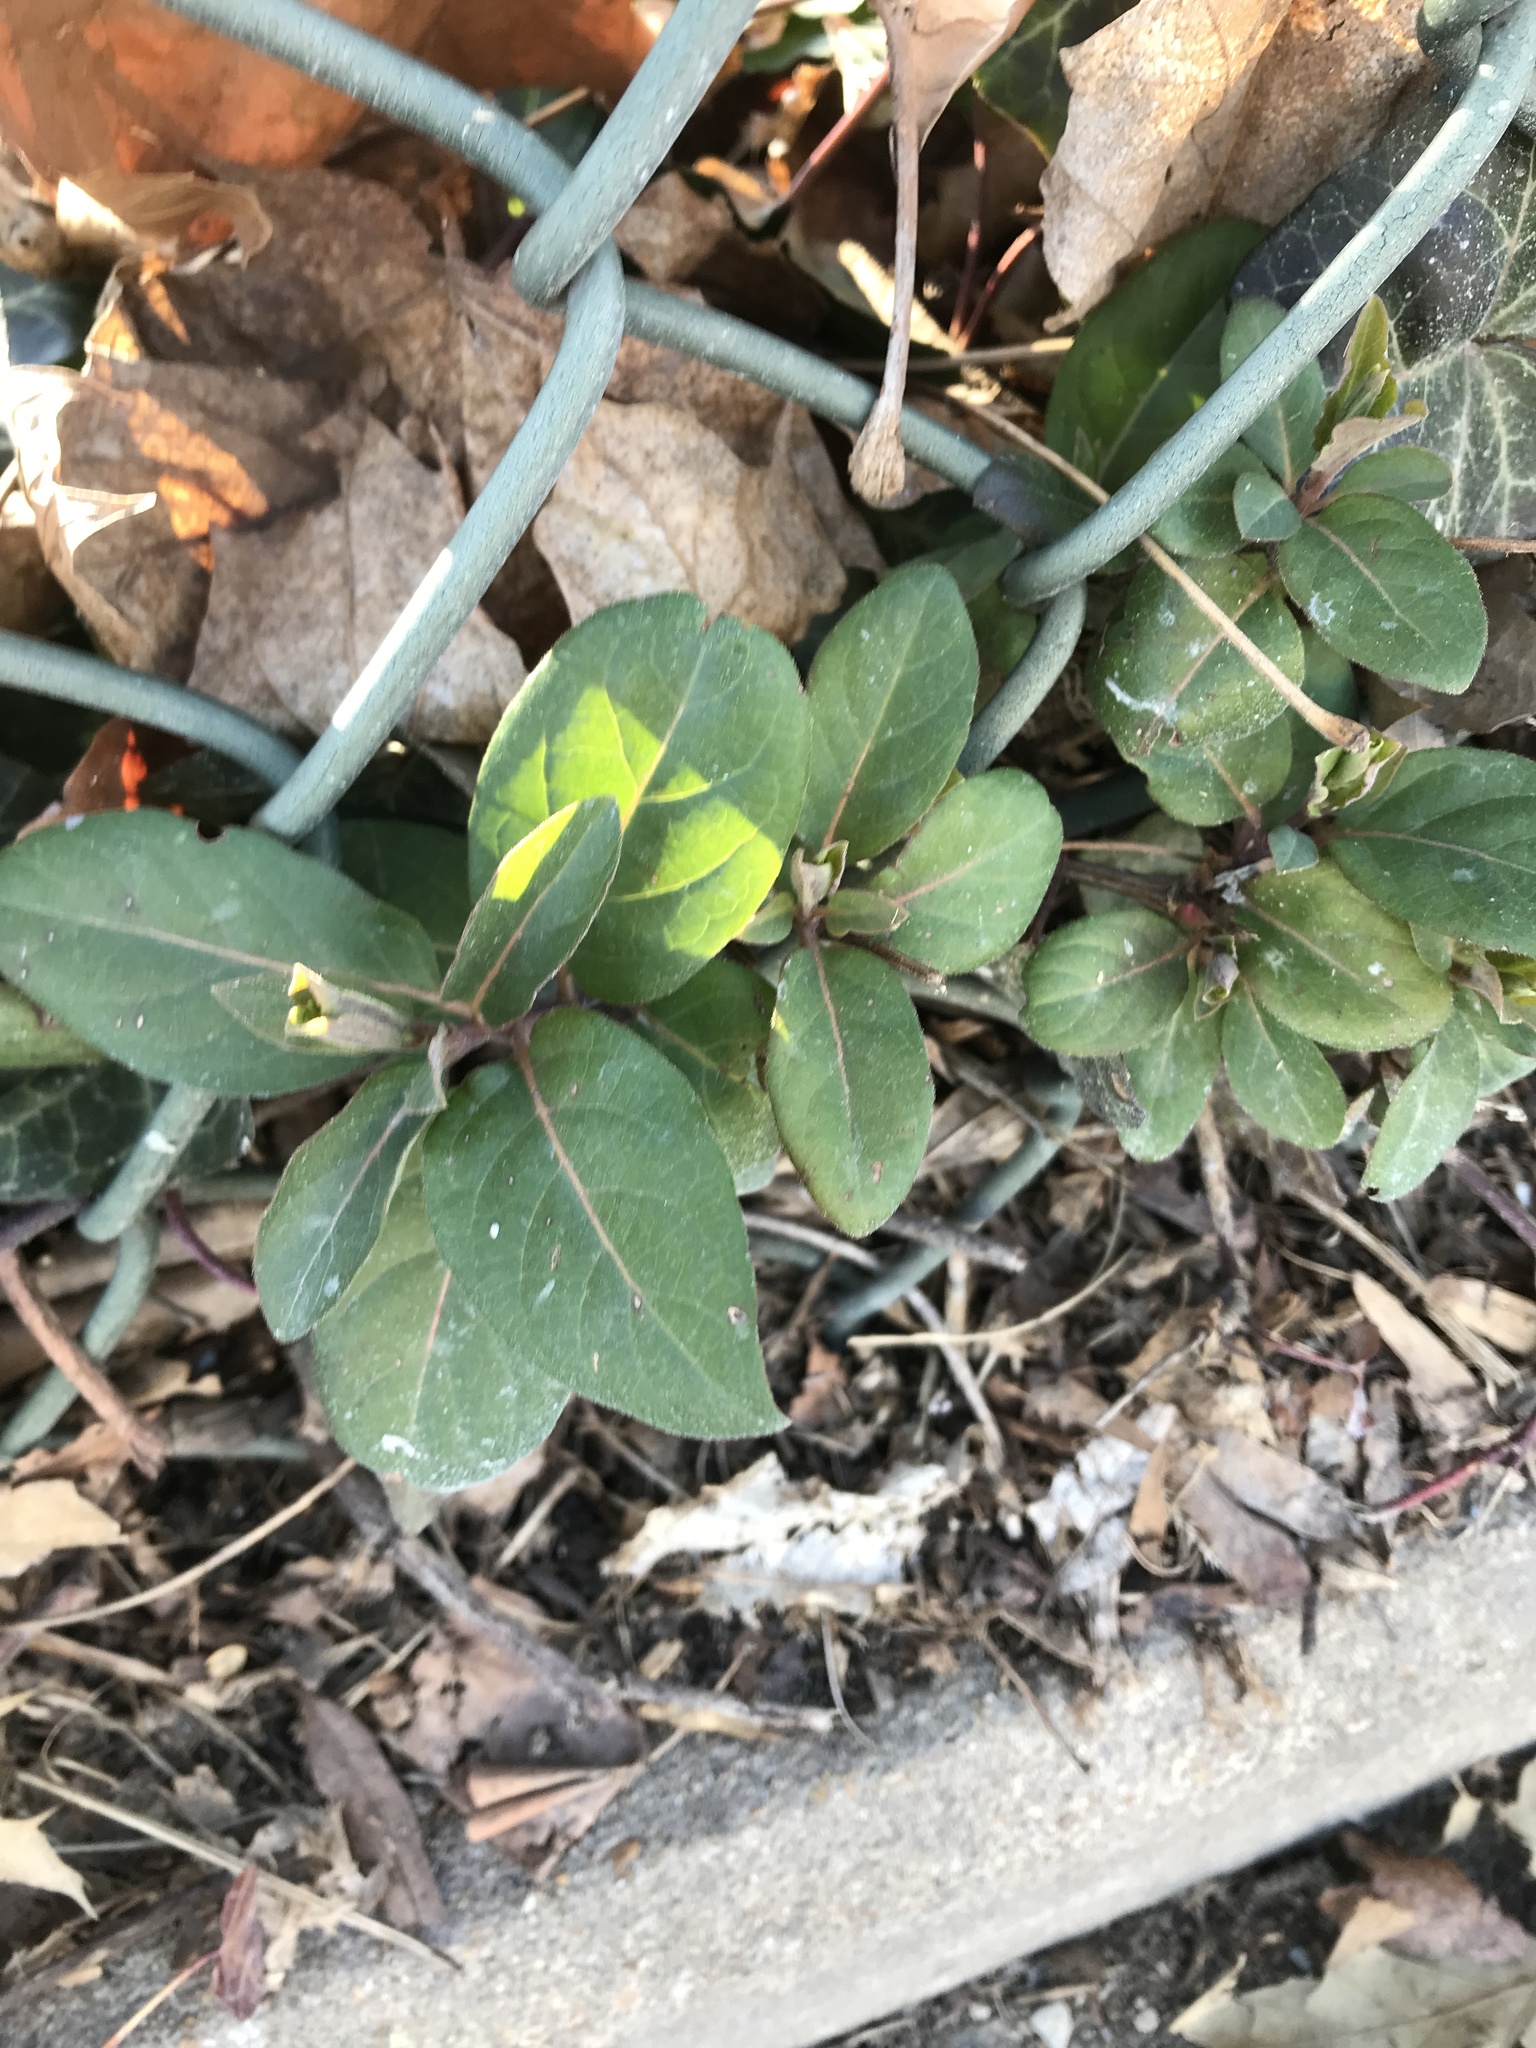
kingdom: Plantae
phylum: Tracheophyta
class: Magnoliopsida
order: Dipsacales
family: Caprifoliaceae
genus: Lonicera
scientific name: Lonicera japonica
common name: Japanese honeysuckle
